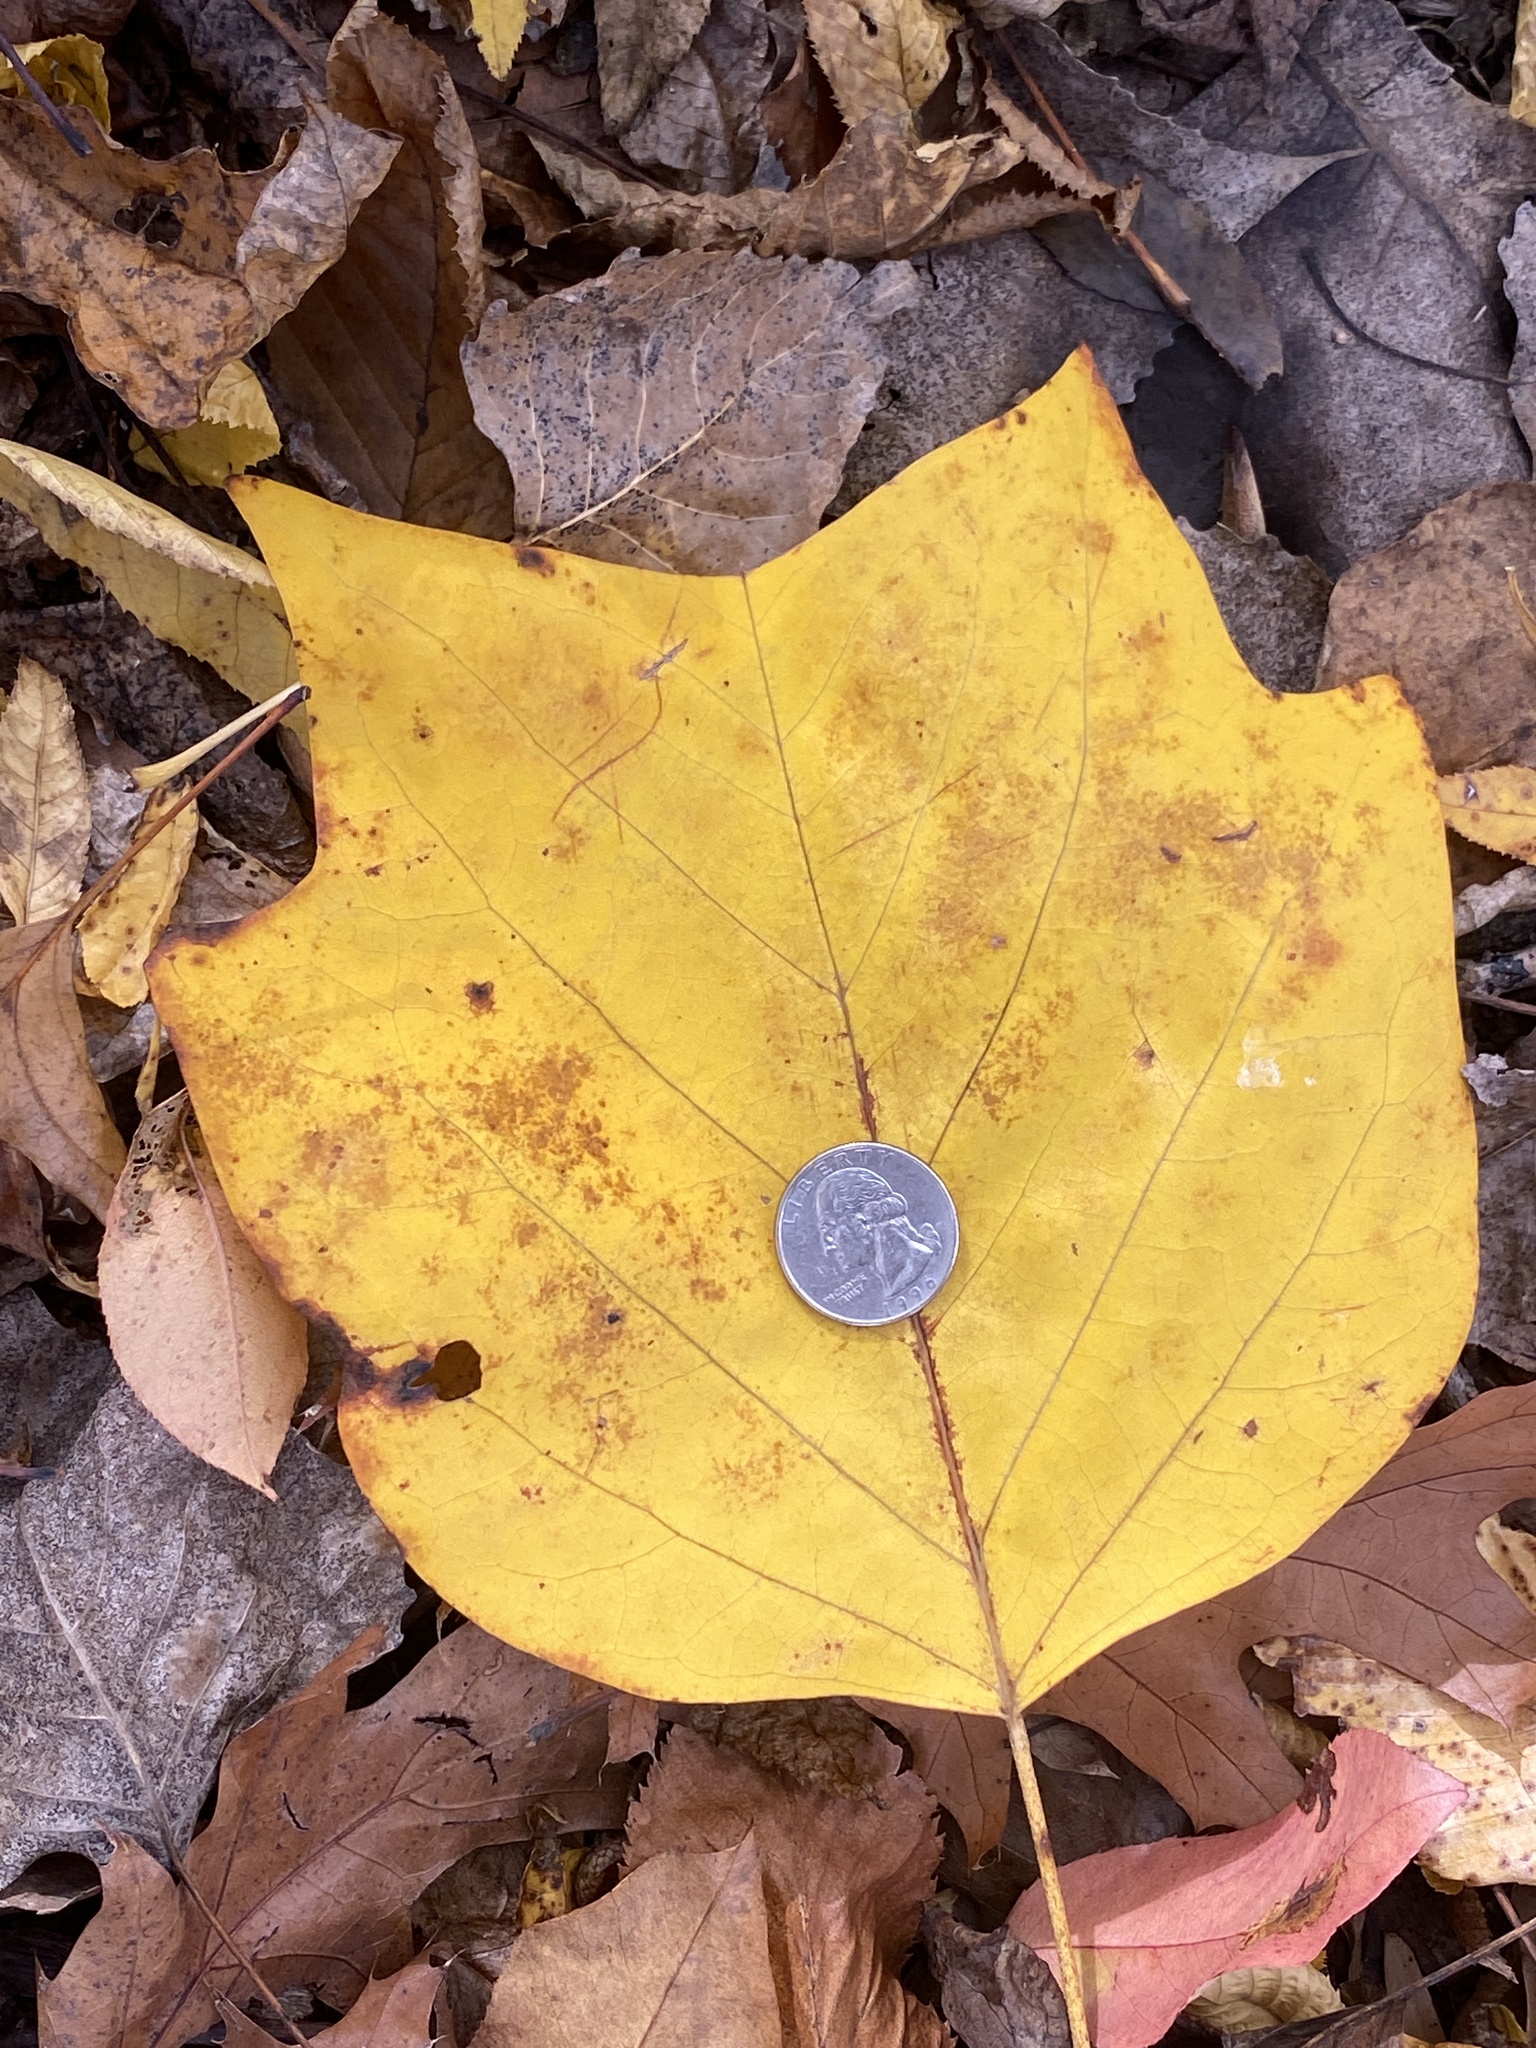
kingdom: Plantae
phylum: Tracheophyta
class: Magnoliopsida
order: Magnoliales
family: Magnoliaceae
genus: Liriodendron
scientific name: Liriodendron tulipifera
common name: Tulip tree
